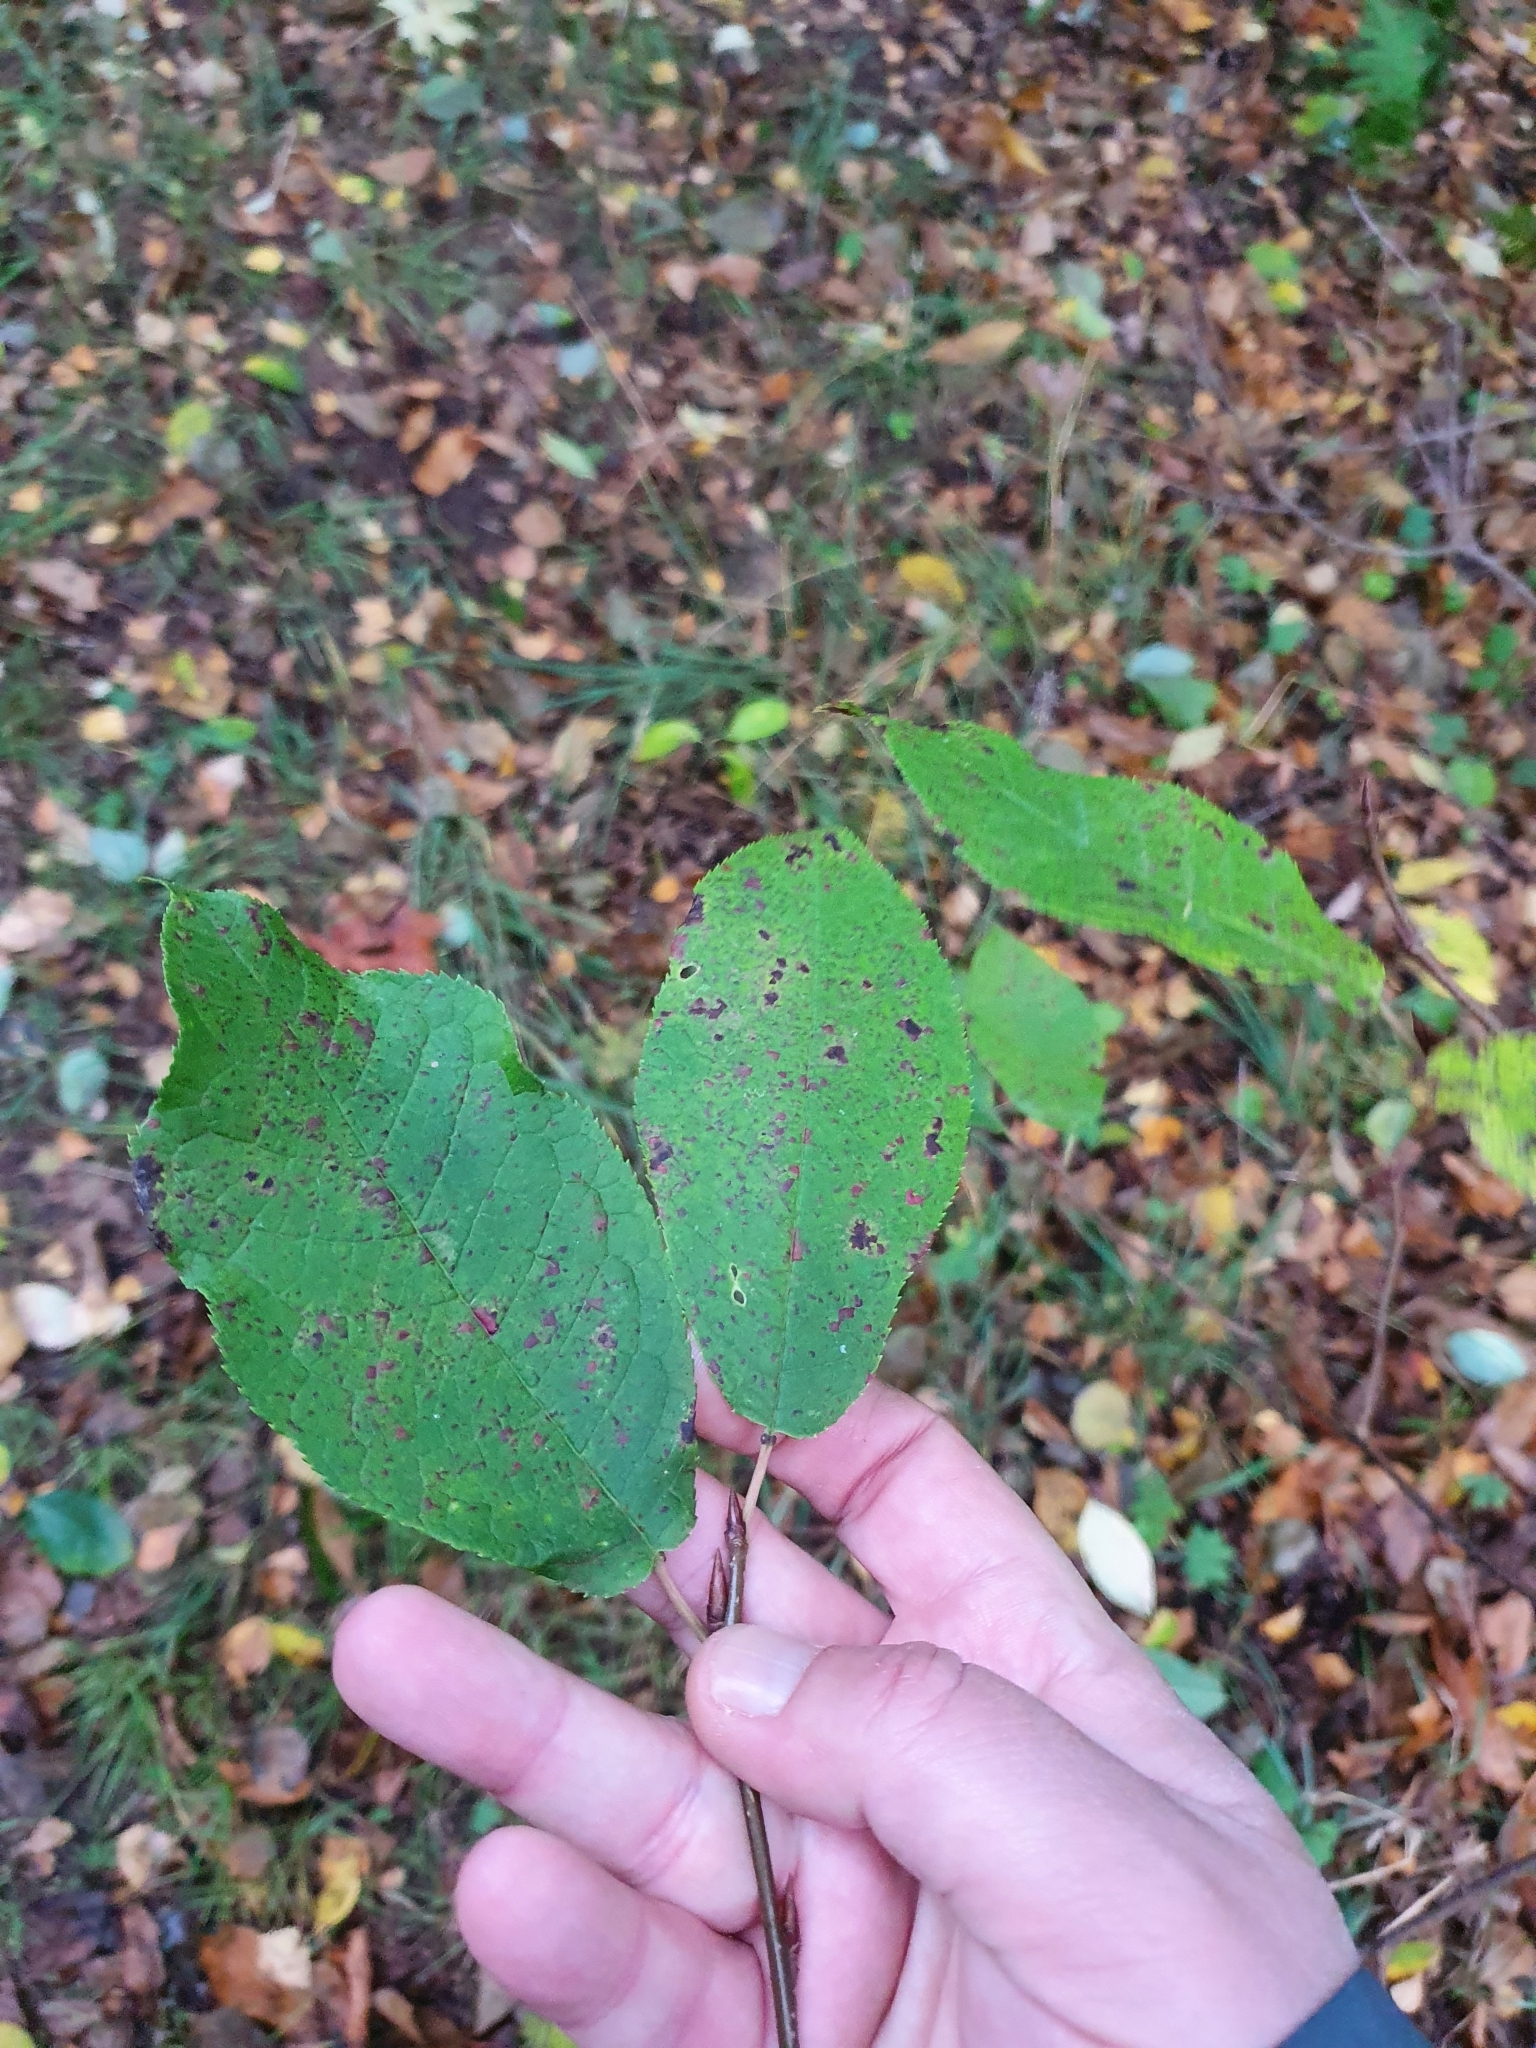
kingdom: Plantae
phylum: Tracheophyta
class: Magnoliopsida
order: Rosales
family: Rosaceae
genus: Prunus
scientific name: Prunus padus
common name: Bird cherry
